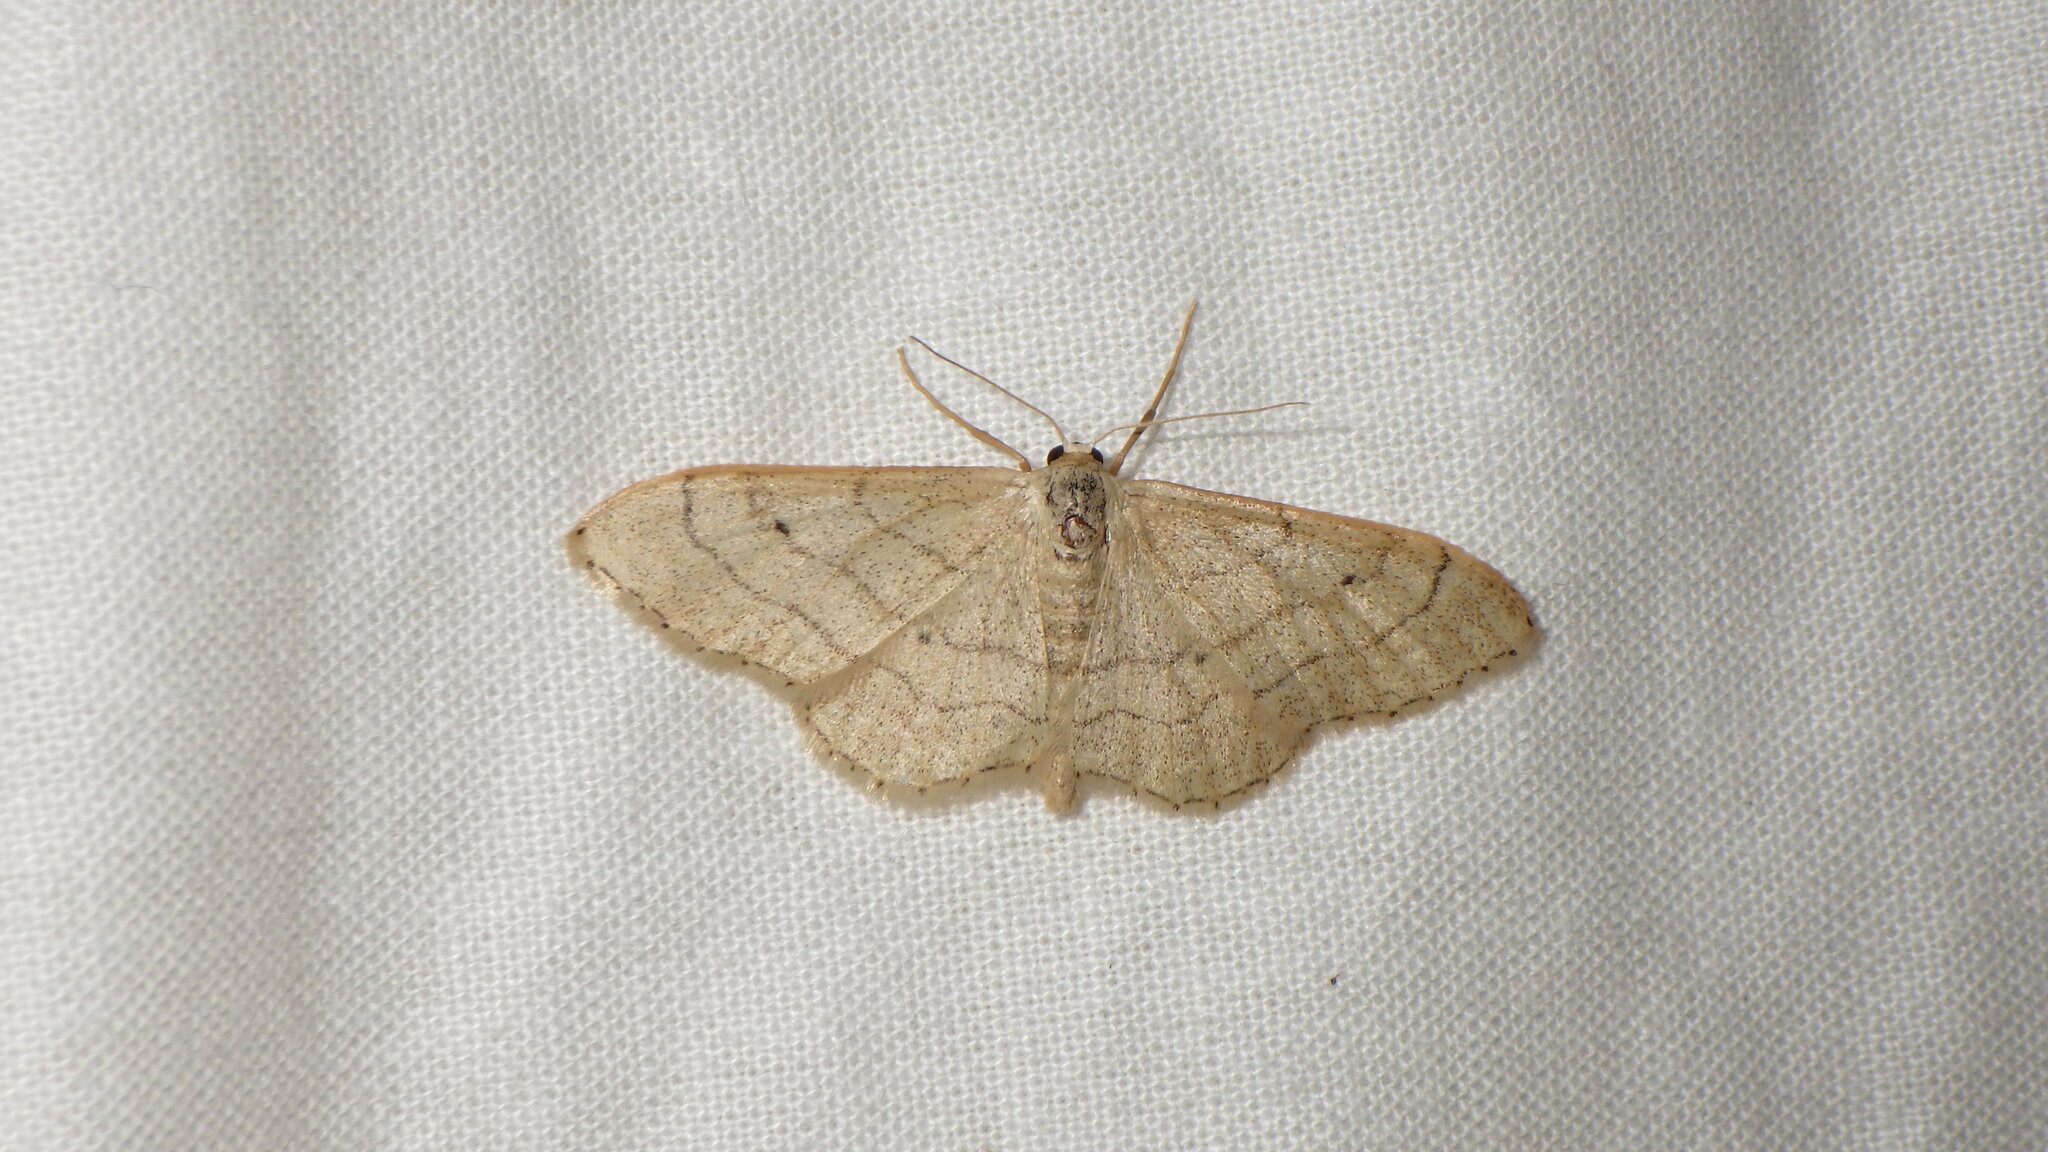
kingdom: Animalia
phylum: Arthropoda
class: Insecta
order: Lepidoptera
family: Geometridae
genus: Idaea
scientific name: Idaea aversata
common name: Riband wave
